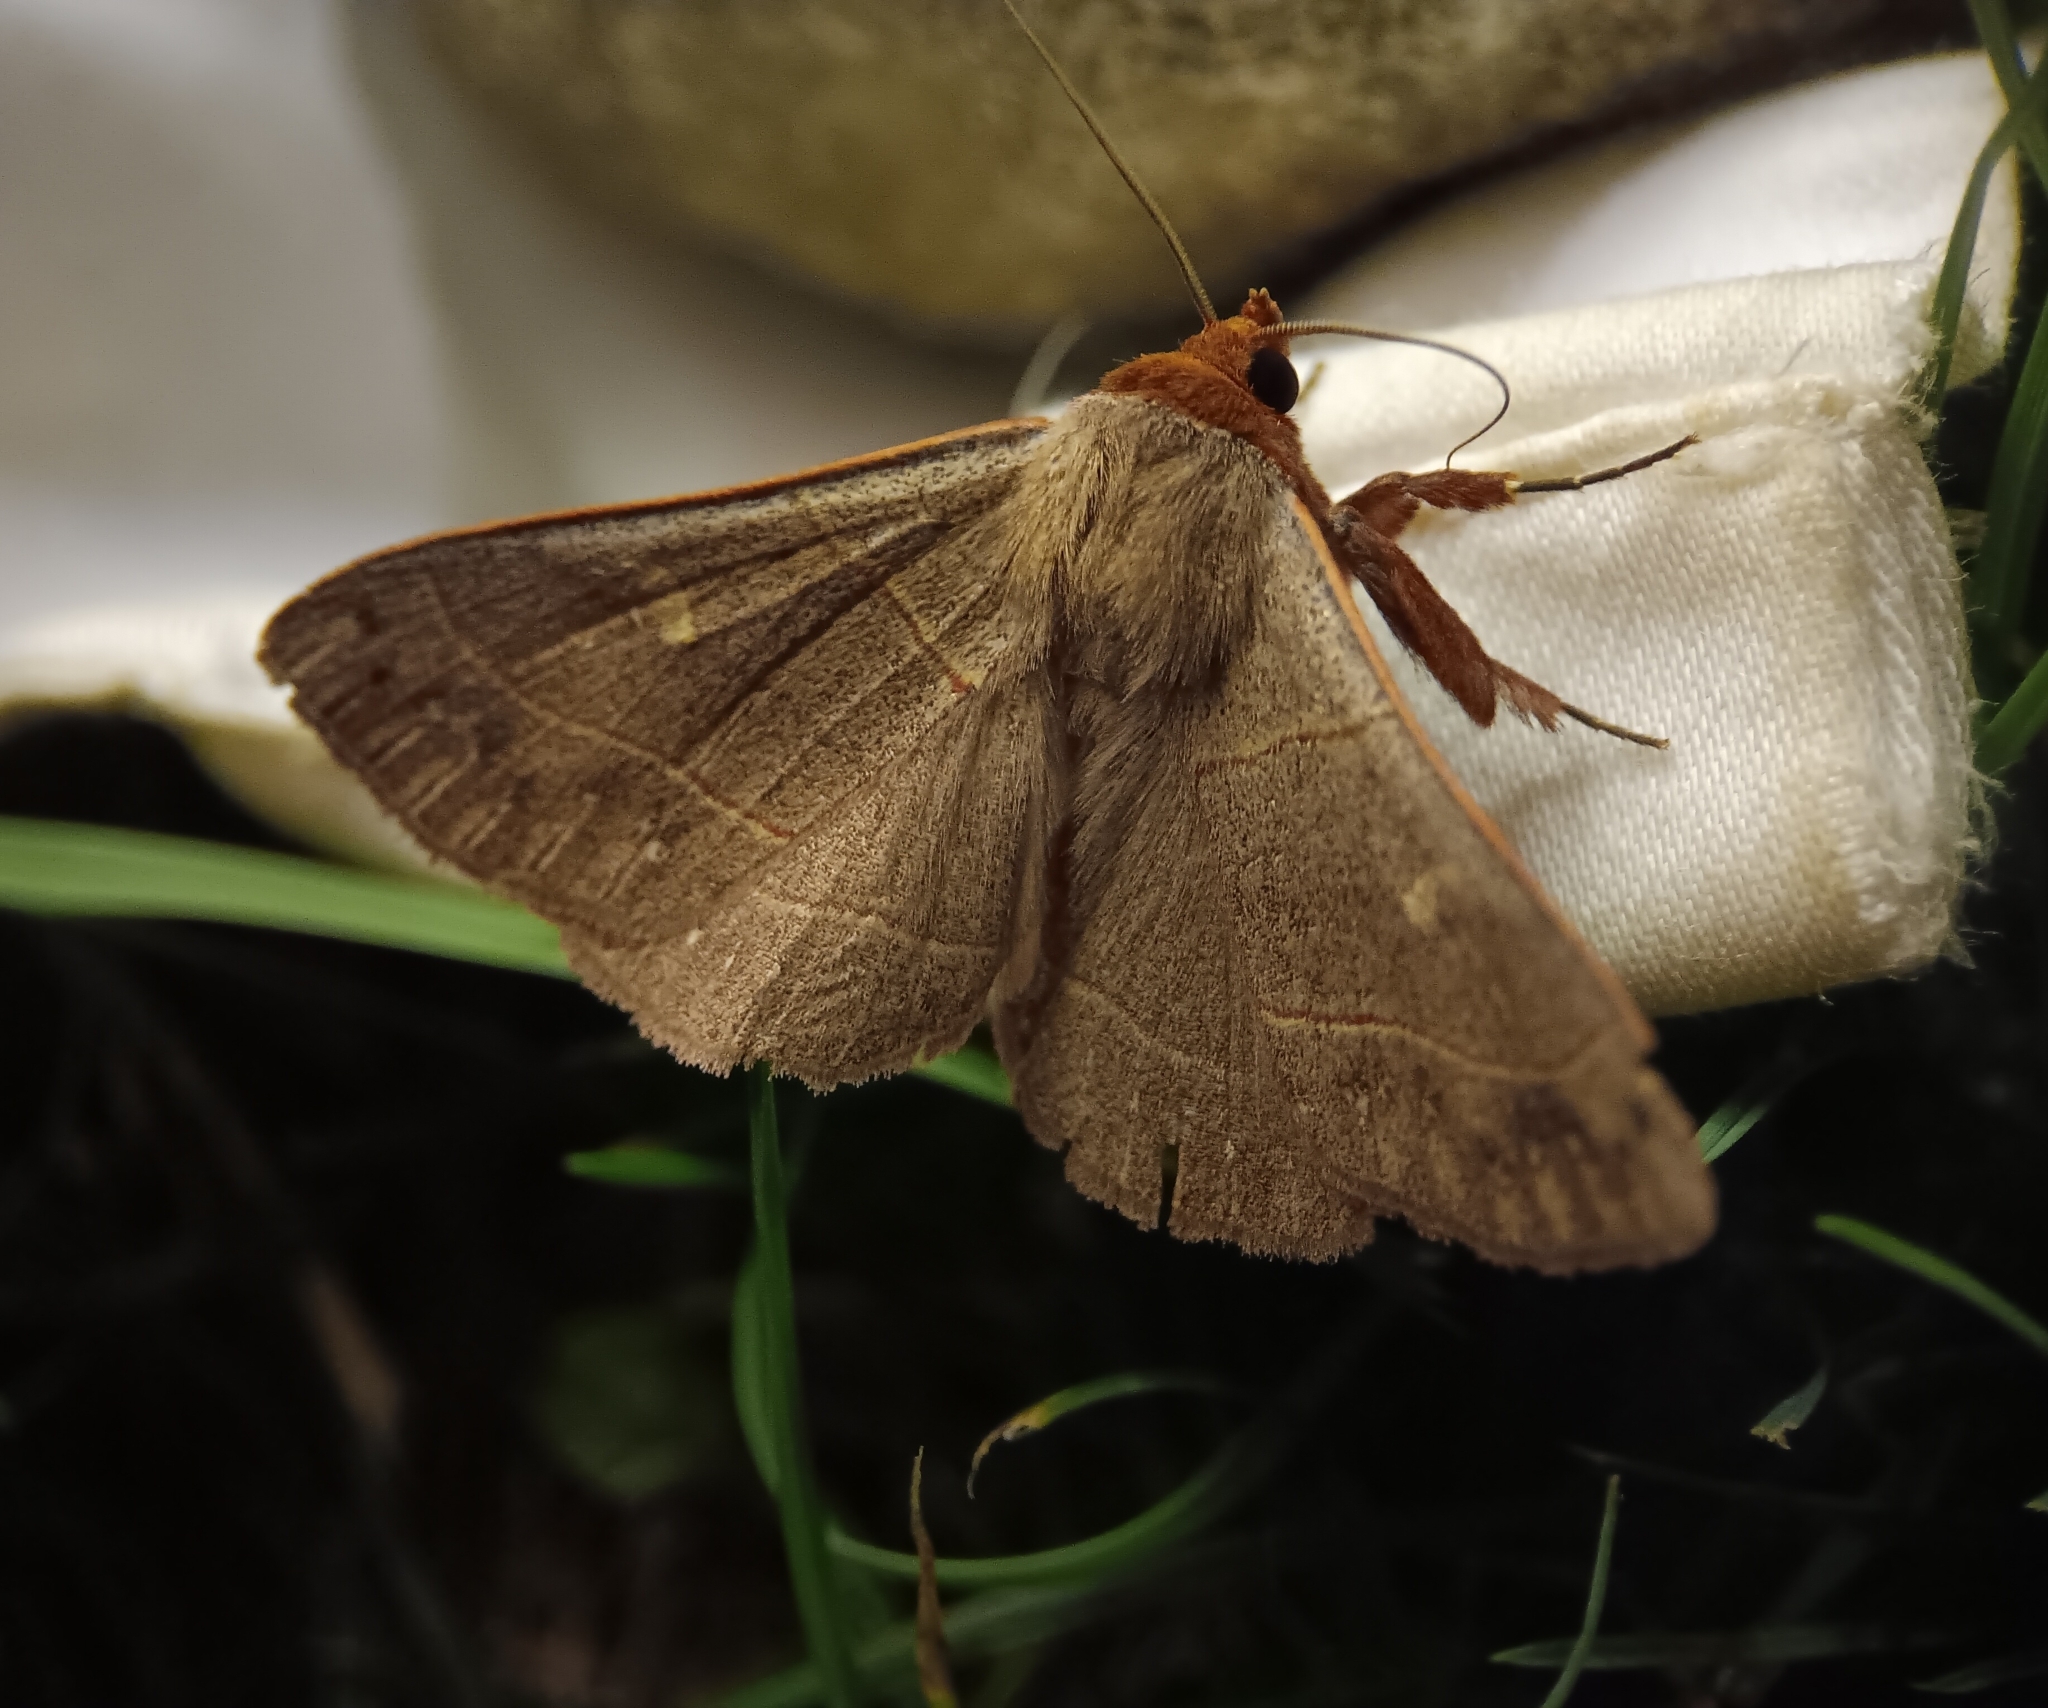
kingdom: Animalia
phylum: Arthropoda
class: Insecta
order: Lepidoptera
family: Erebidae
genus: Panopoda
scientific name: Panopoda rufimargo
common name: Red-lined panopoda moth
